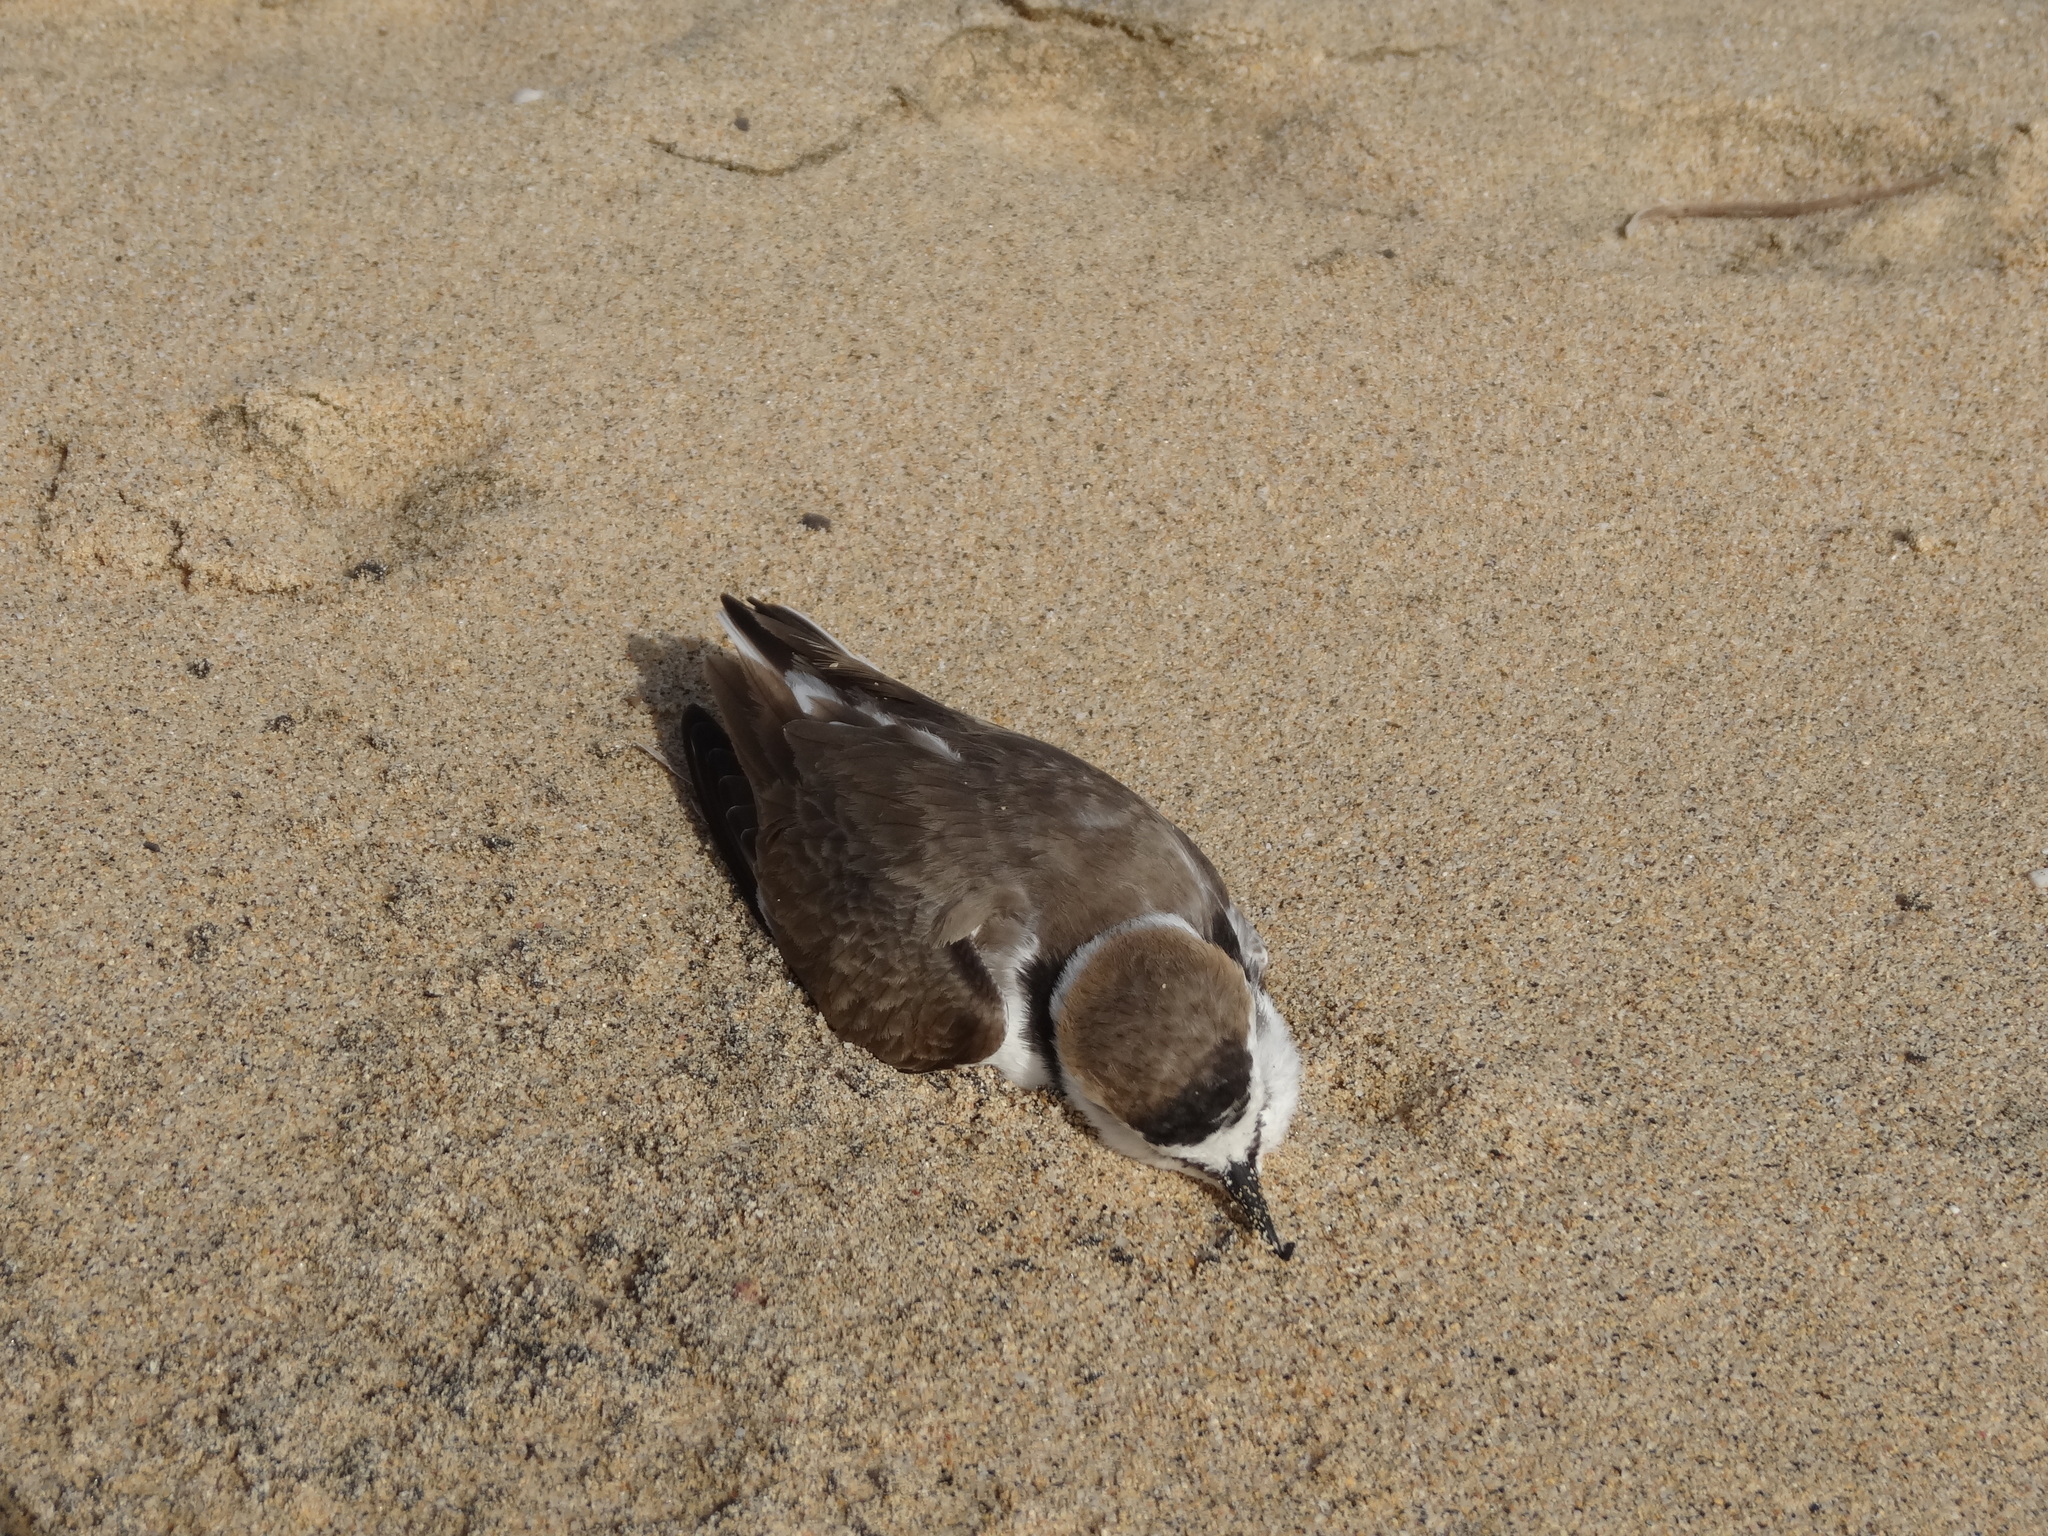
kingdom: Animalia
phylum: Chordata
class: Aves
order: Charadriiformes
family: Charadriidae
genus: Charadrius
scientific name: Charadrius alexandrinus
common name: Kentish plover
